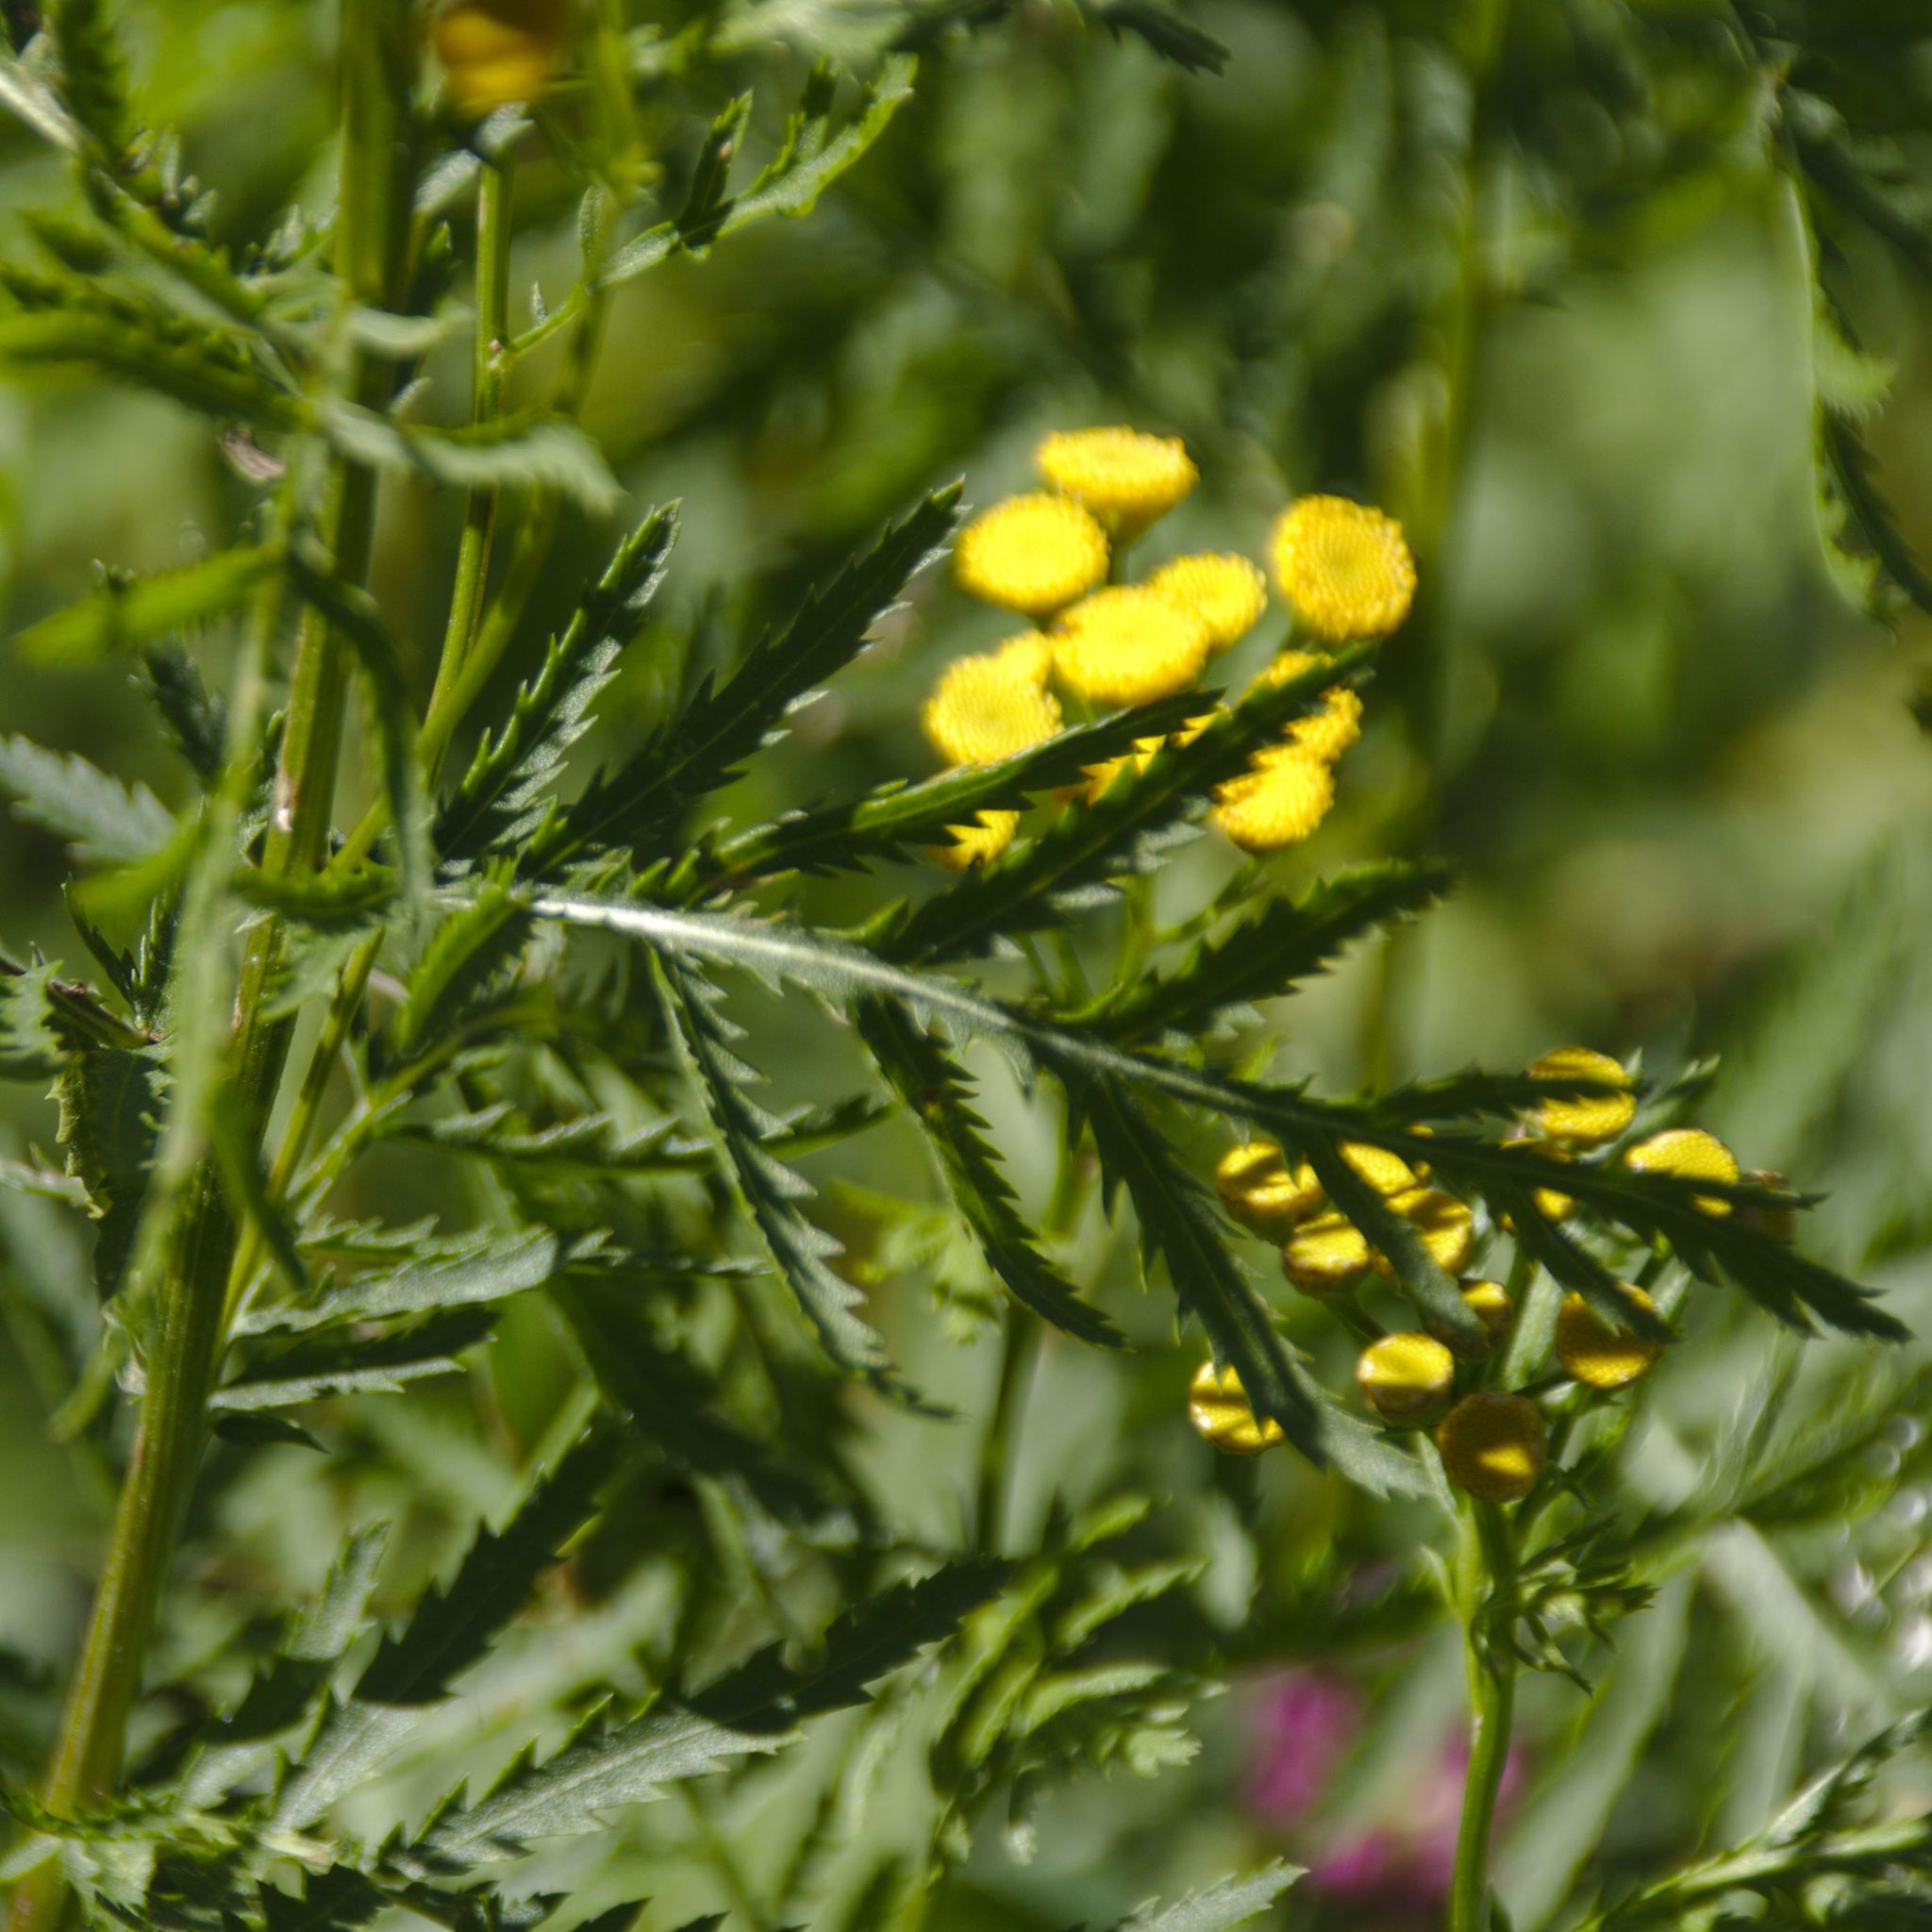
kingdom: Plantae
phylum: Tracheophyta
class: Magnoliopsida
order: Asterales
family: Asteraceae
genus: Tanacetum
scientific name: Tanacetum vulgare
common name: Common tansy
